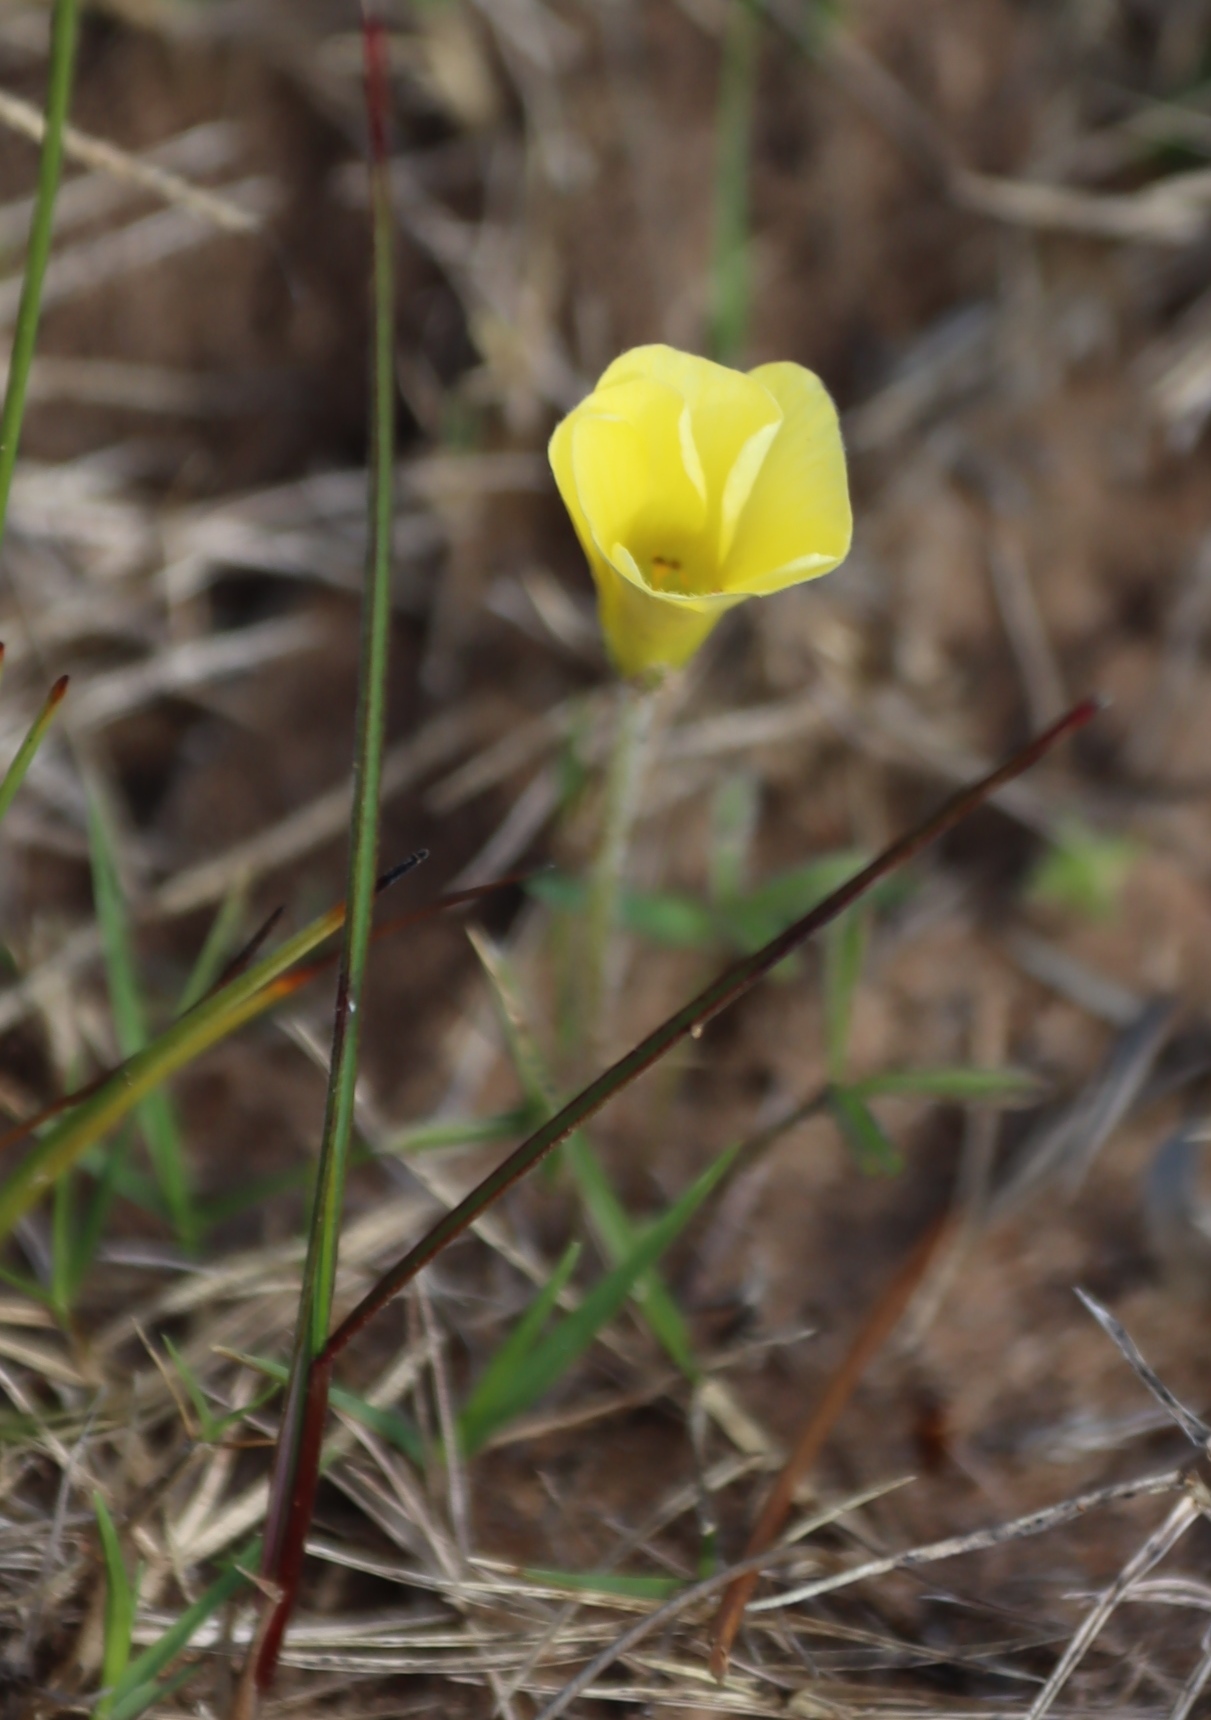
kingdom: Plantae
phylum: Tracheophyta
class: Magnoliopsida
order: Oxalidales
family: Oxalidaceae
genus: Oxalis
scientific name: Oxalis obtusa
